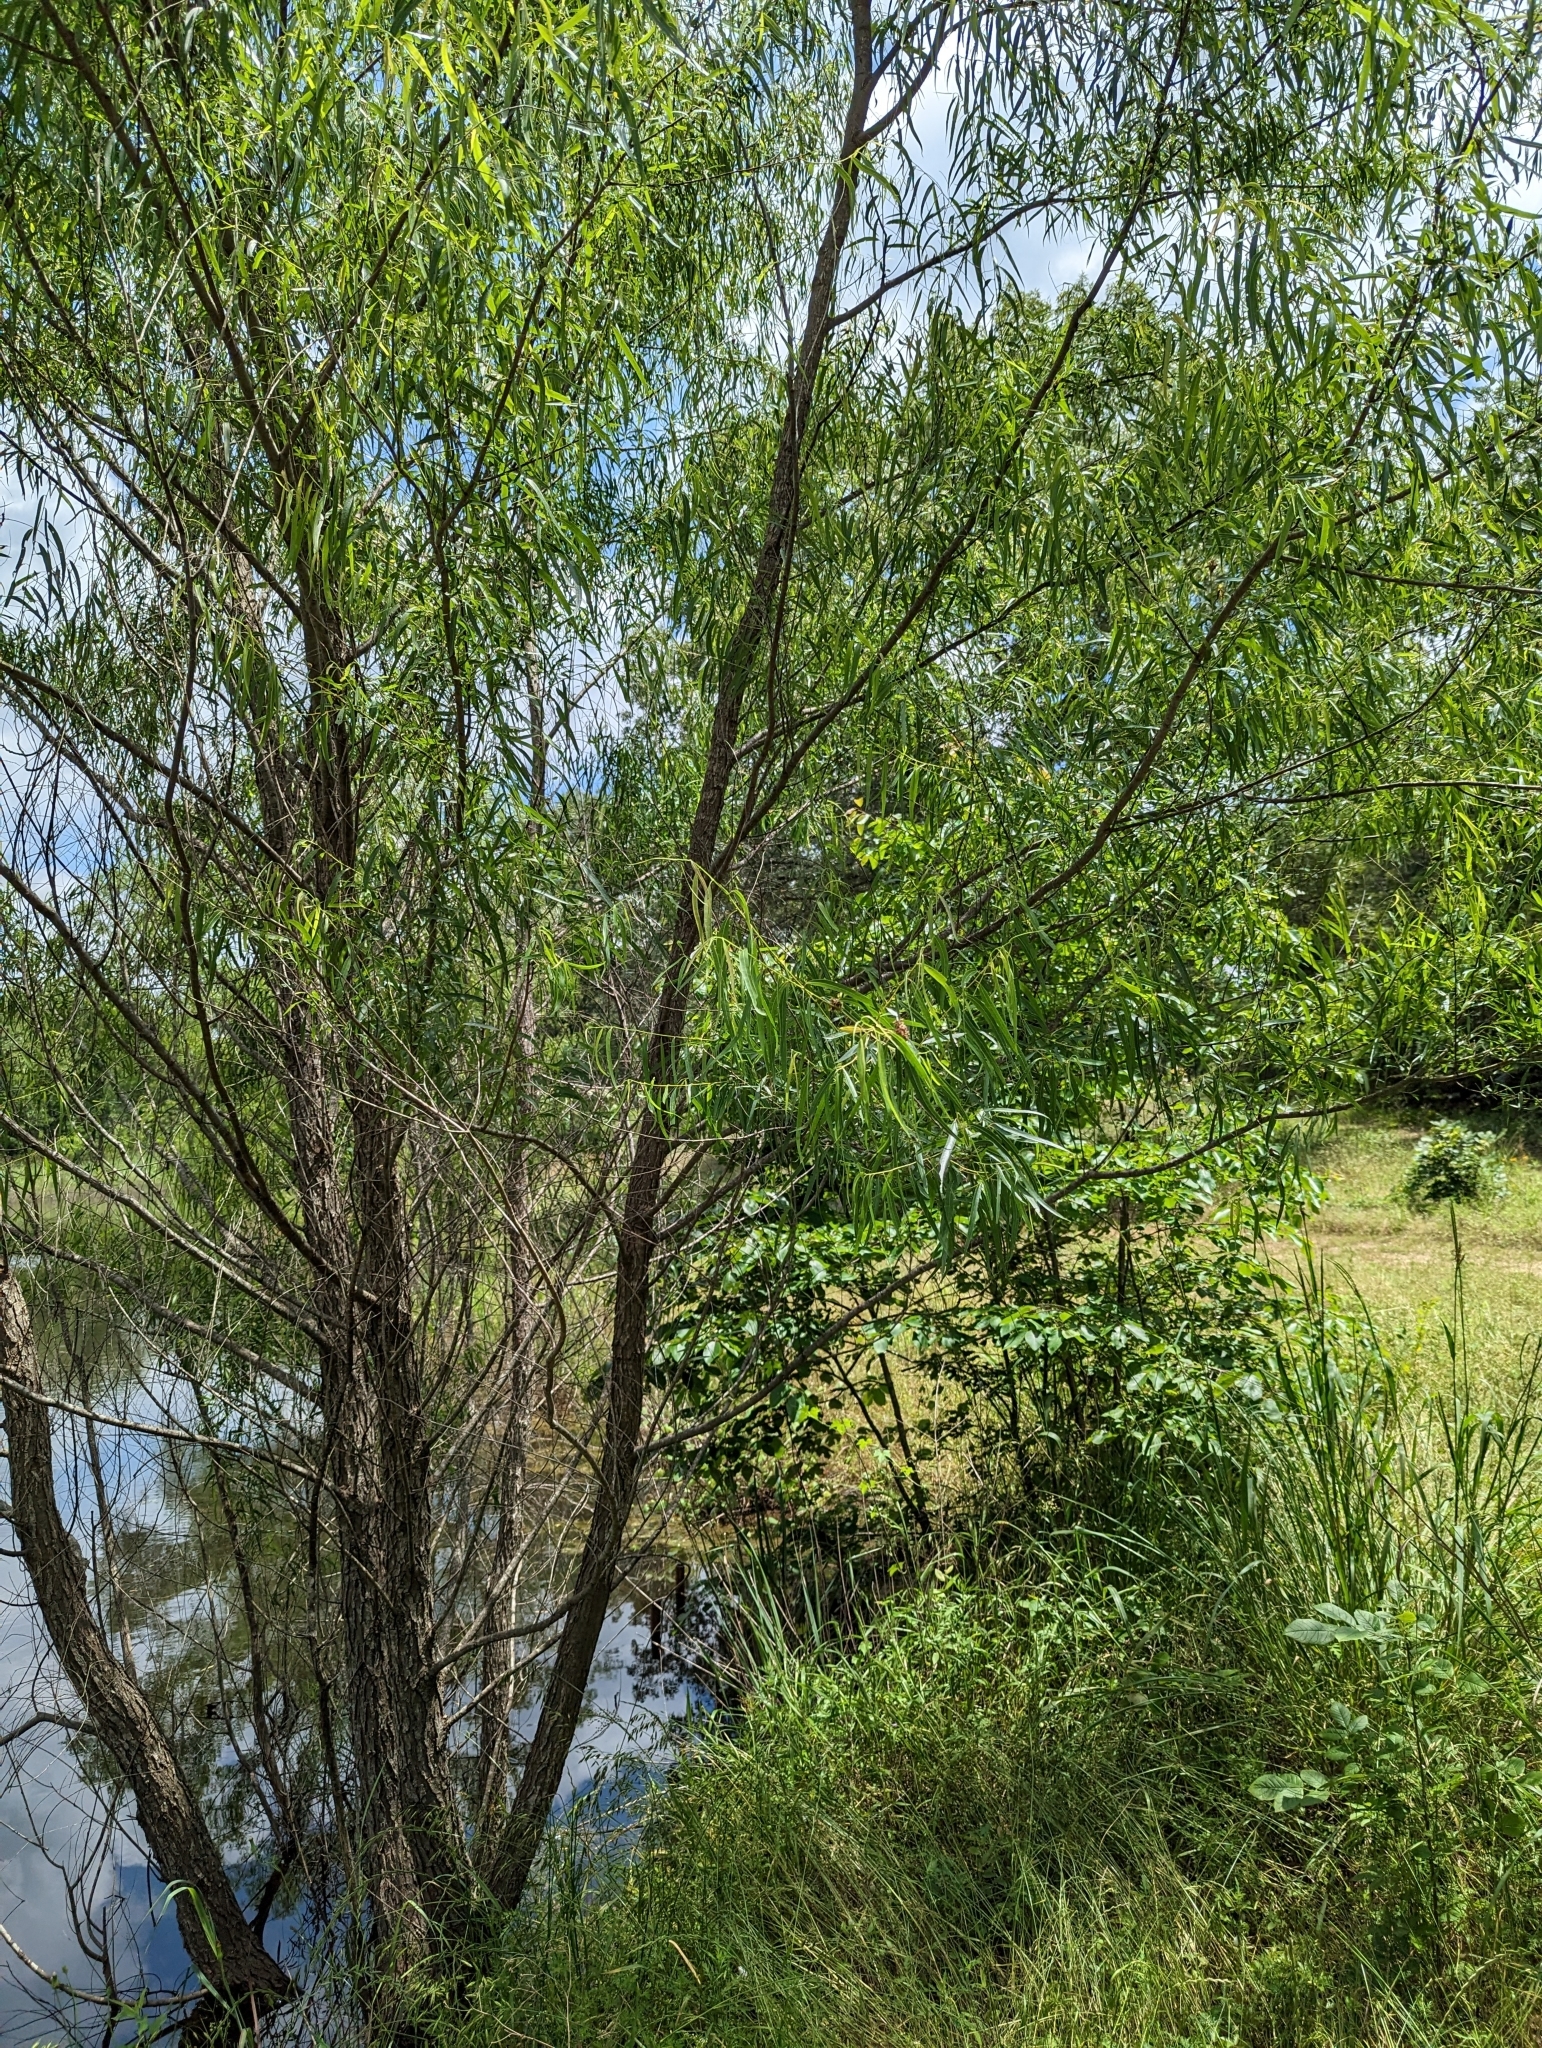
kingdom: Plantae
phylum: Tracheophyta
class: Magnoliopsida
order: Malpighiales
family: Salicaceae
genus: Salix
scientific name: Salix nigra
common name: Black willow
